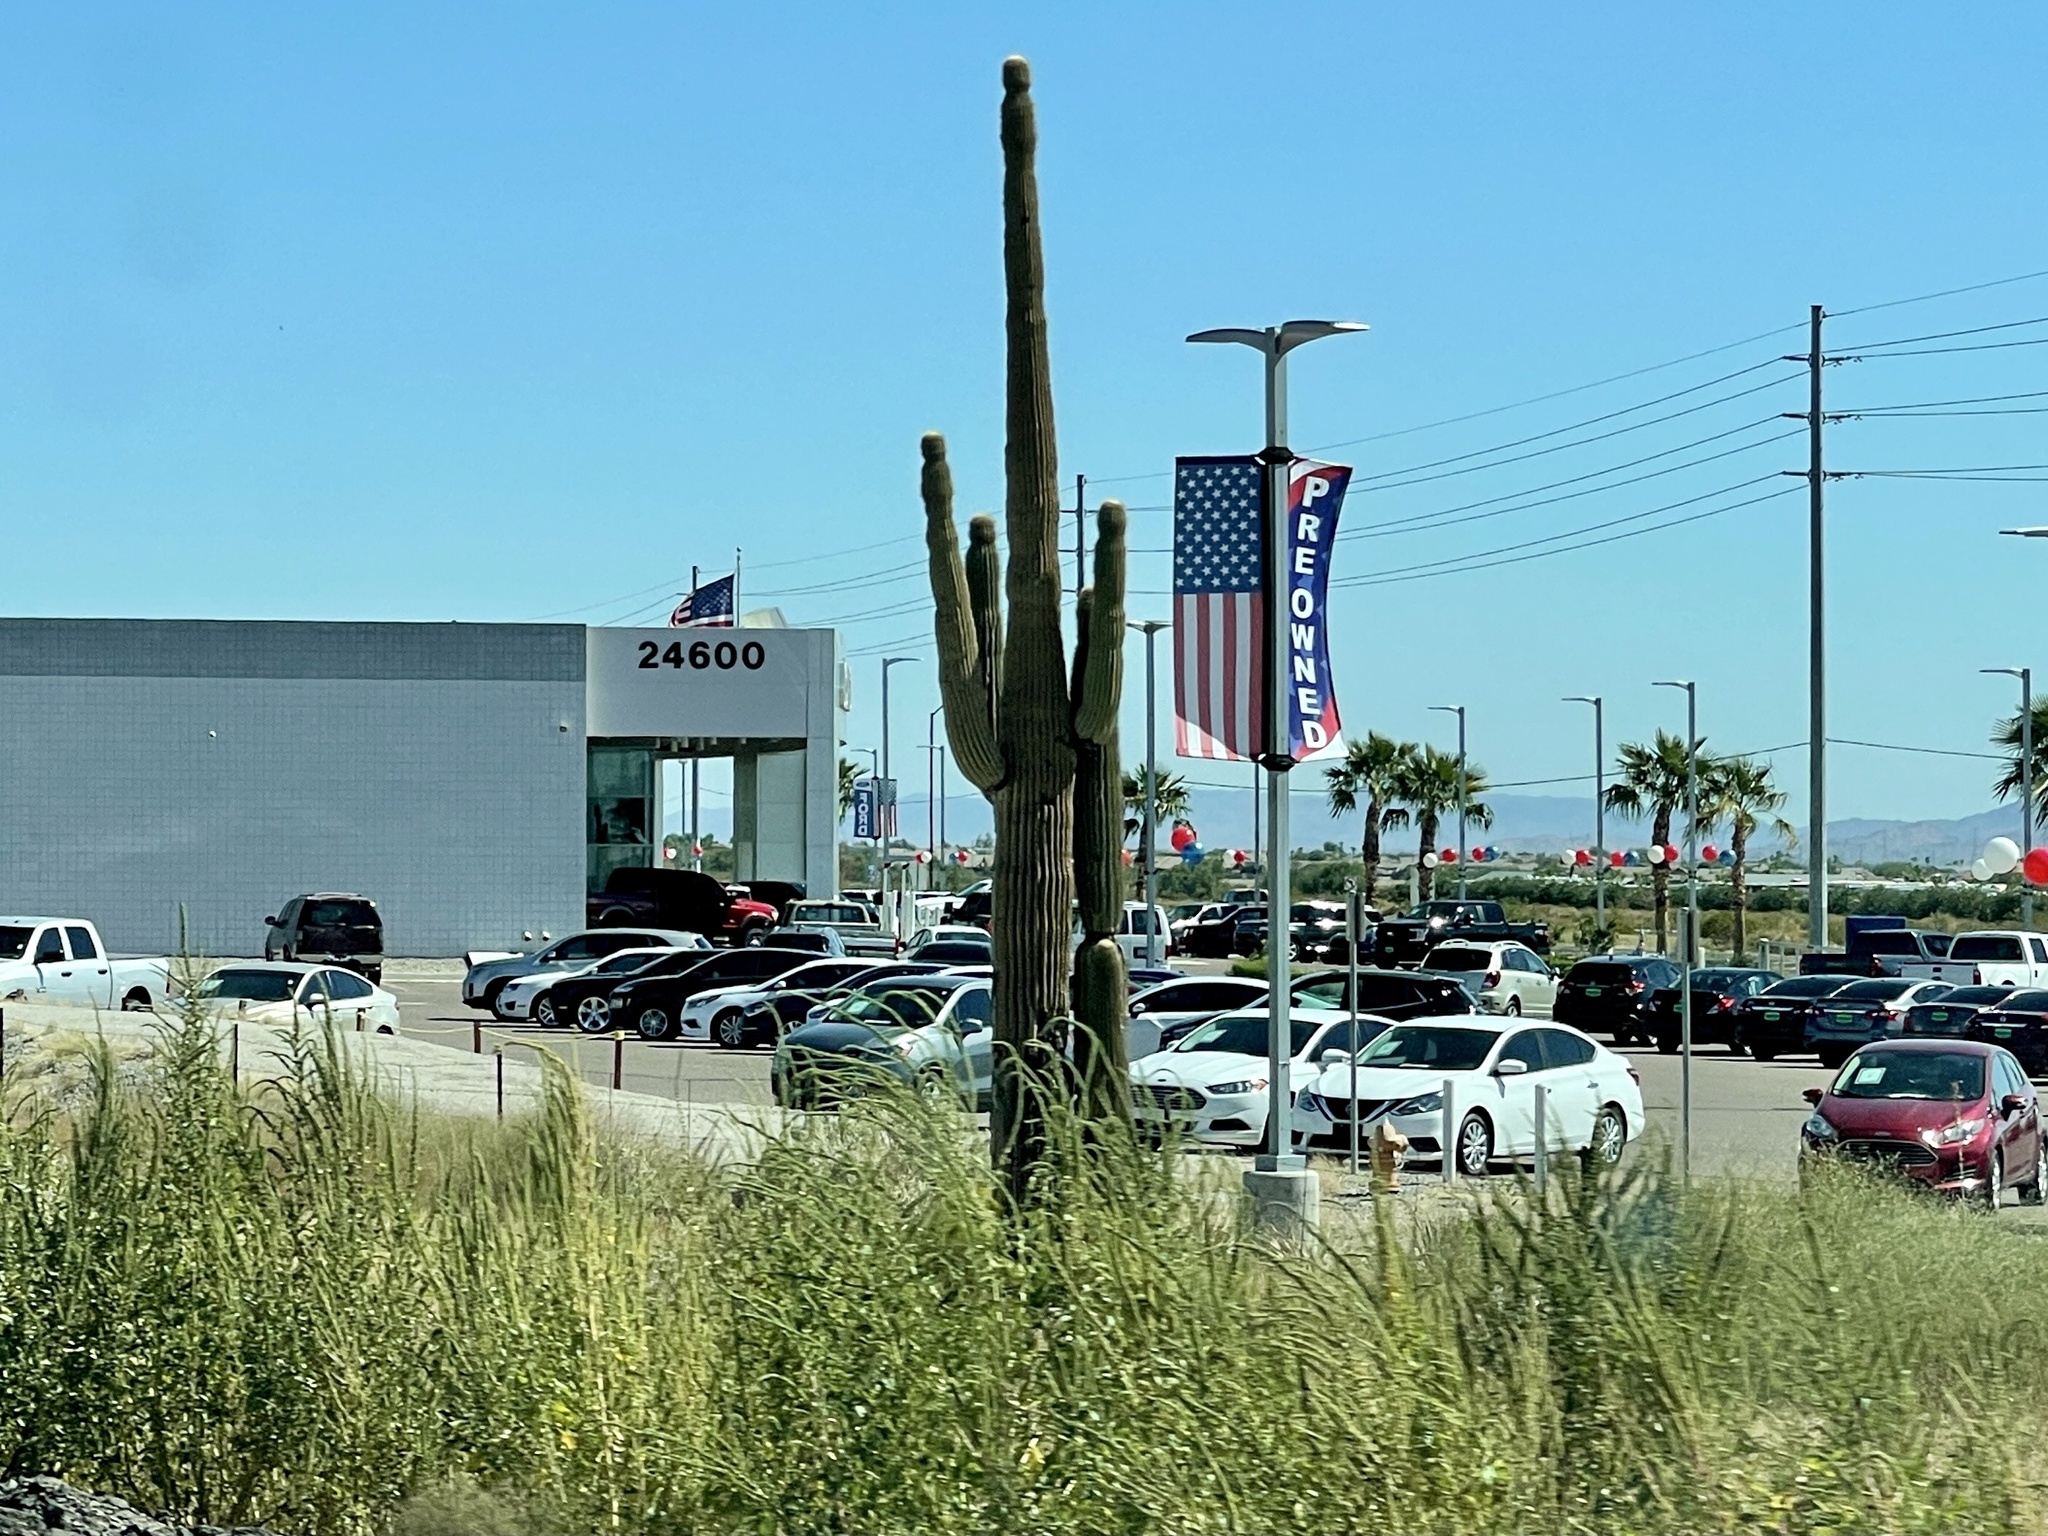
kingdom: Plantae
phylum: Tracheophyta
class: Magnoliopsida
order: Caryophyllales
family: Cactaceae
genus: Carnegiea
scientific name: Carnegiea gigantea
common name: Saguaro
